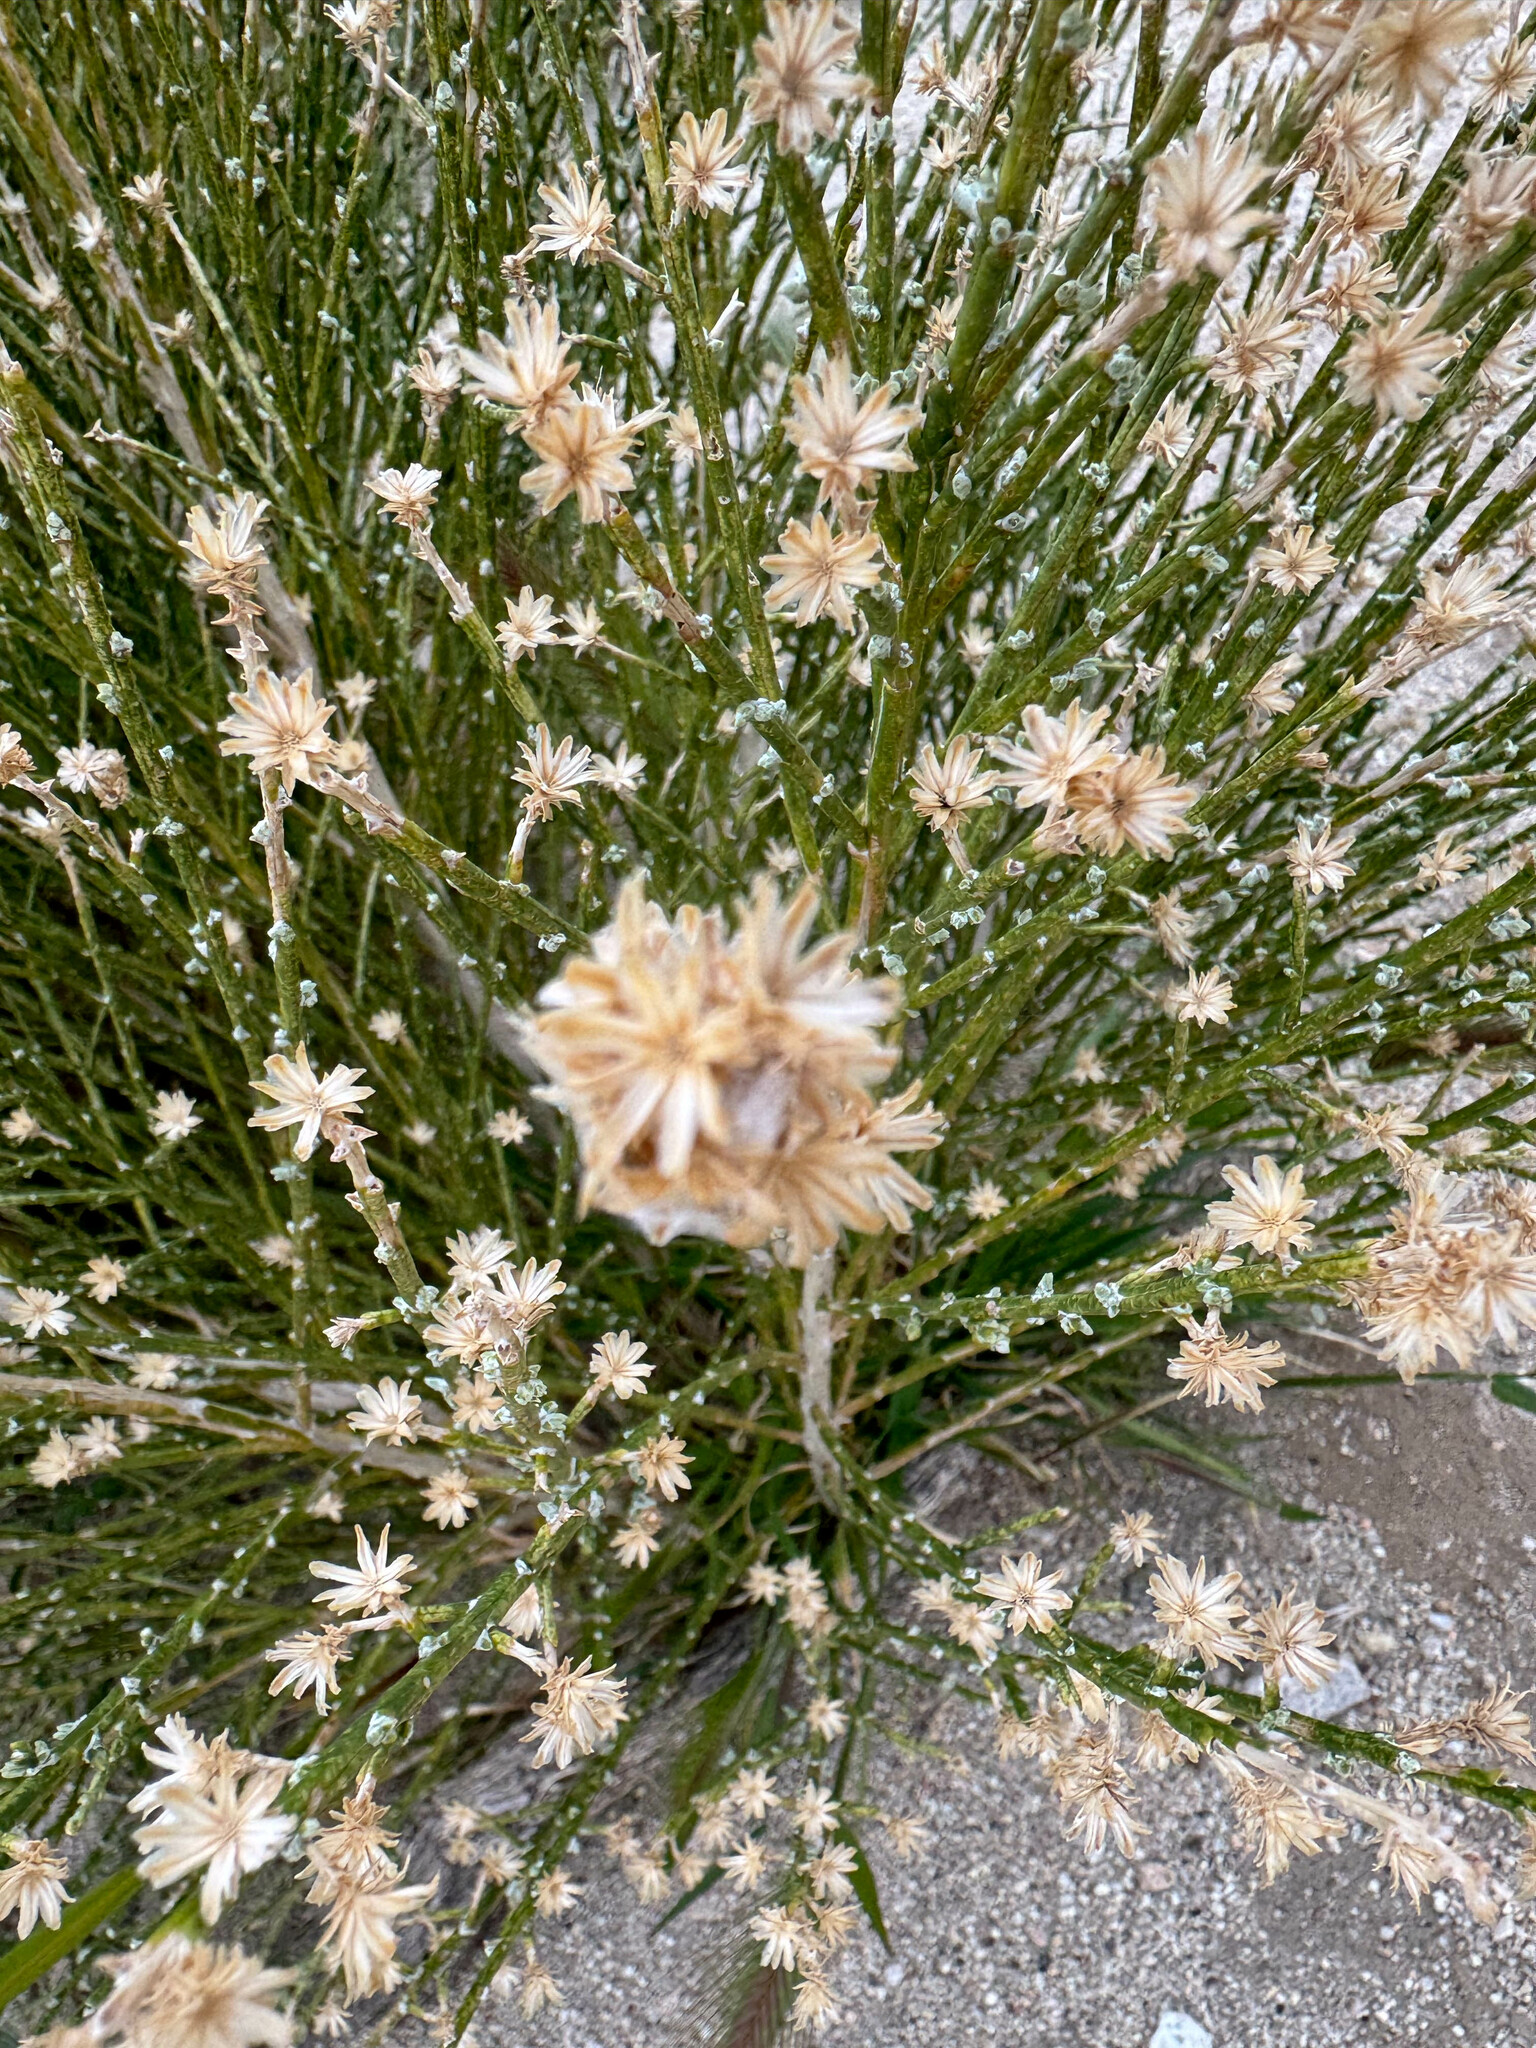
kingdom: Plantae
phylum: Tracheophyta
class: Magnoliopsida
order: Asterales
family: Asteraceae
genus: Lepidospartum
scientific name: Lepidospartum squamatum
